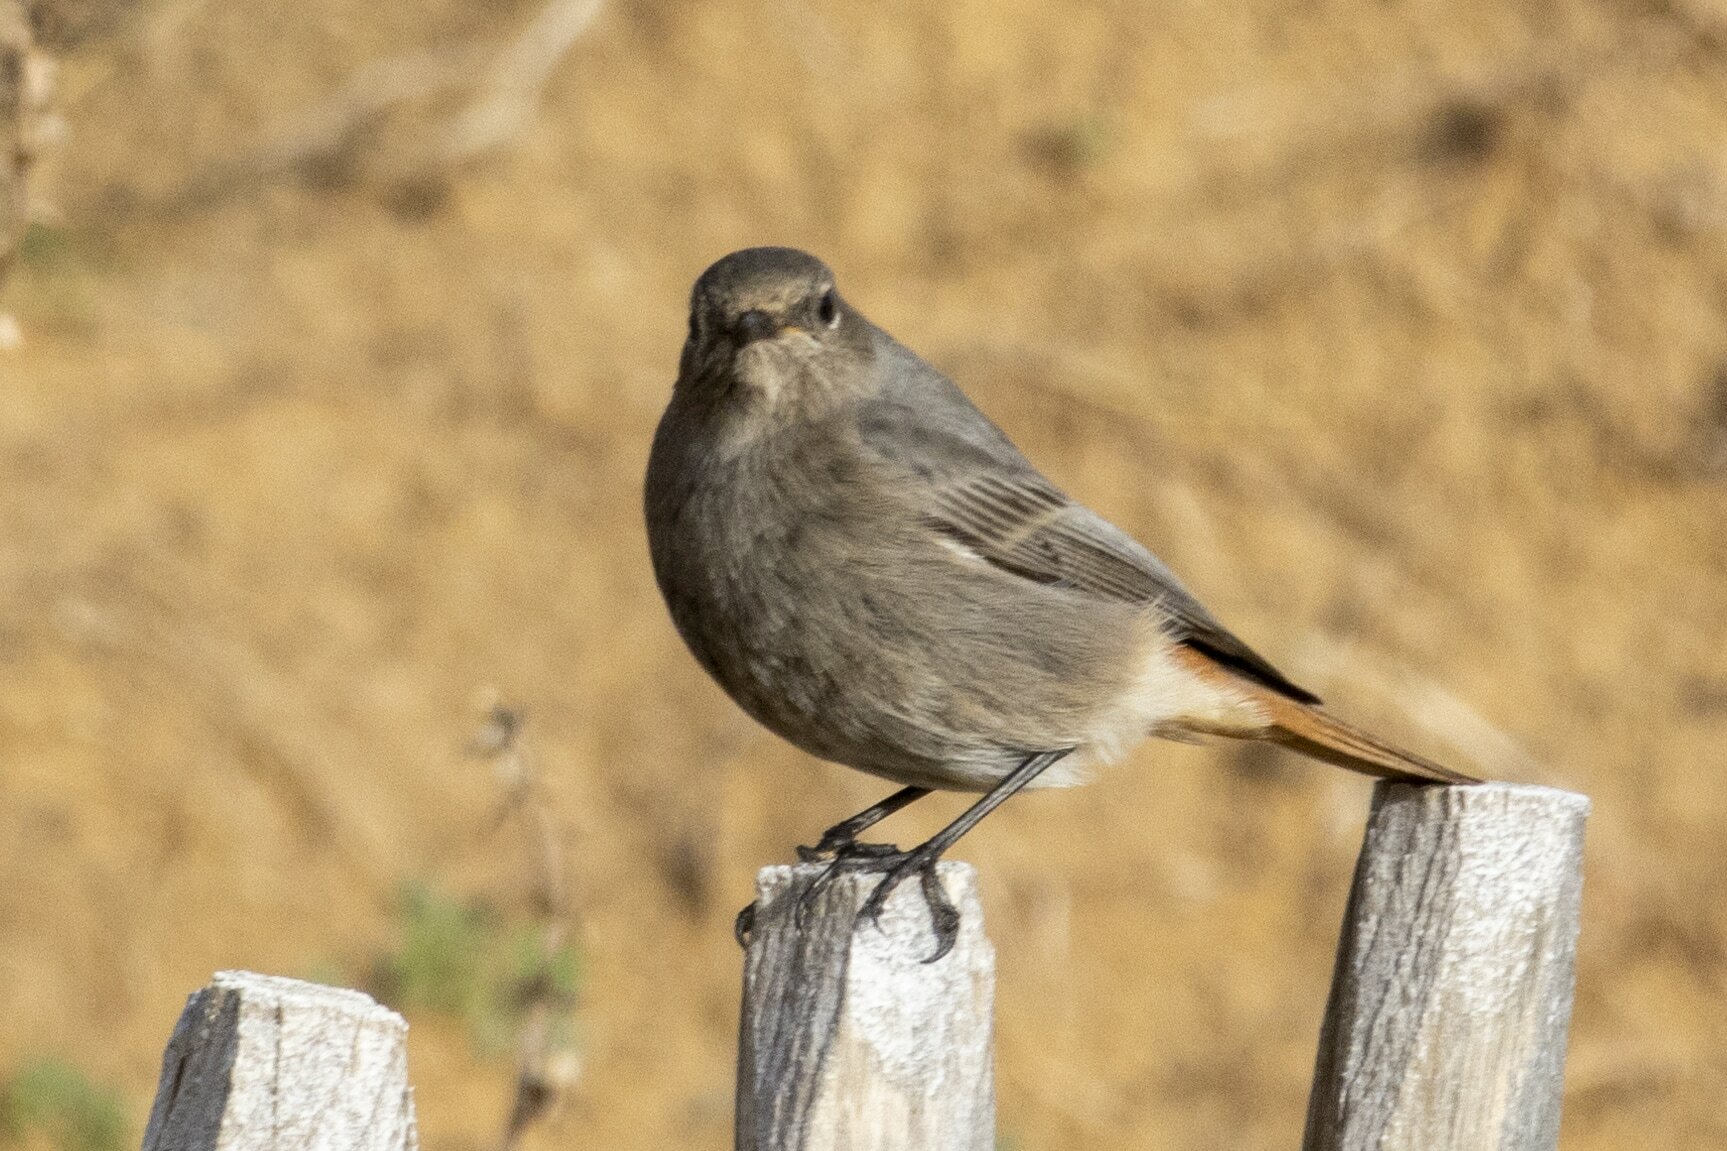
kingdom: Animalia
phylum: Chordata
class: Aves
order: Passeriformes
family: Muscicapidae
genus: Phoenicurus
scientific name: Phoenicurus ochruros
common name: Black redstart
